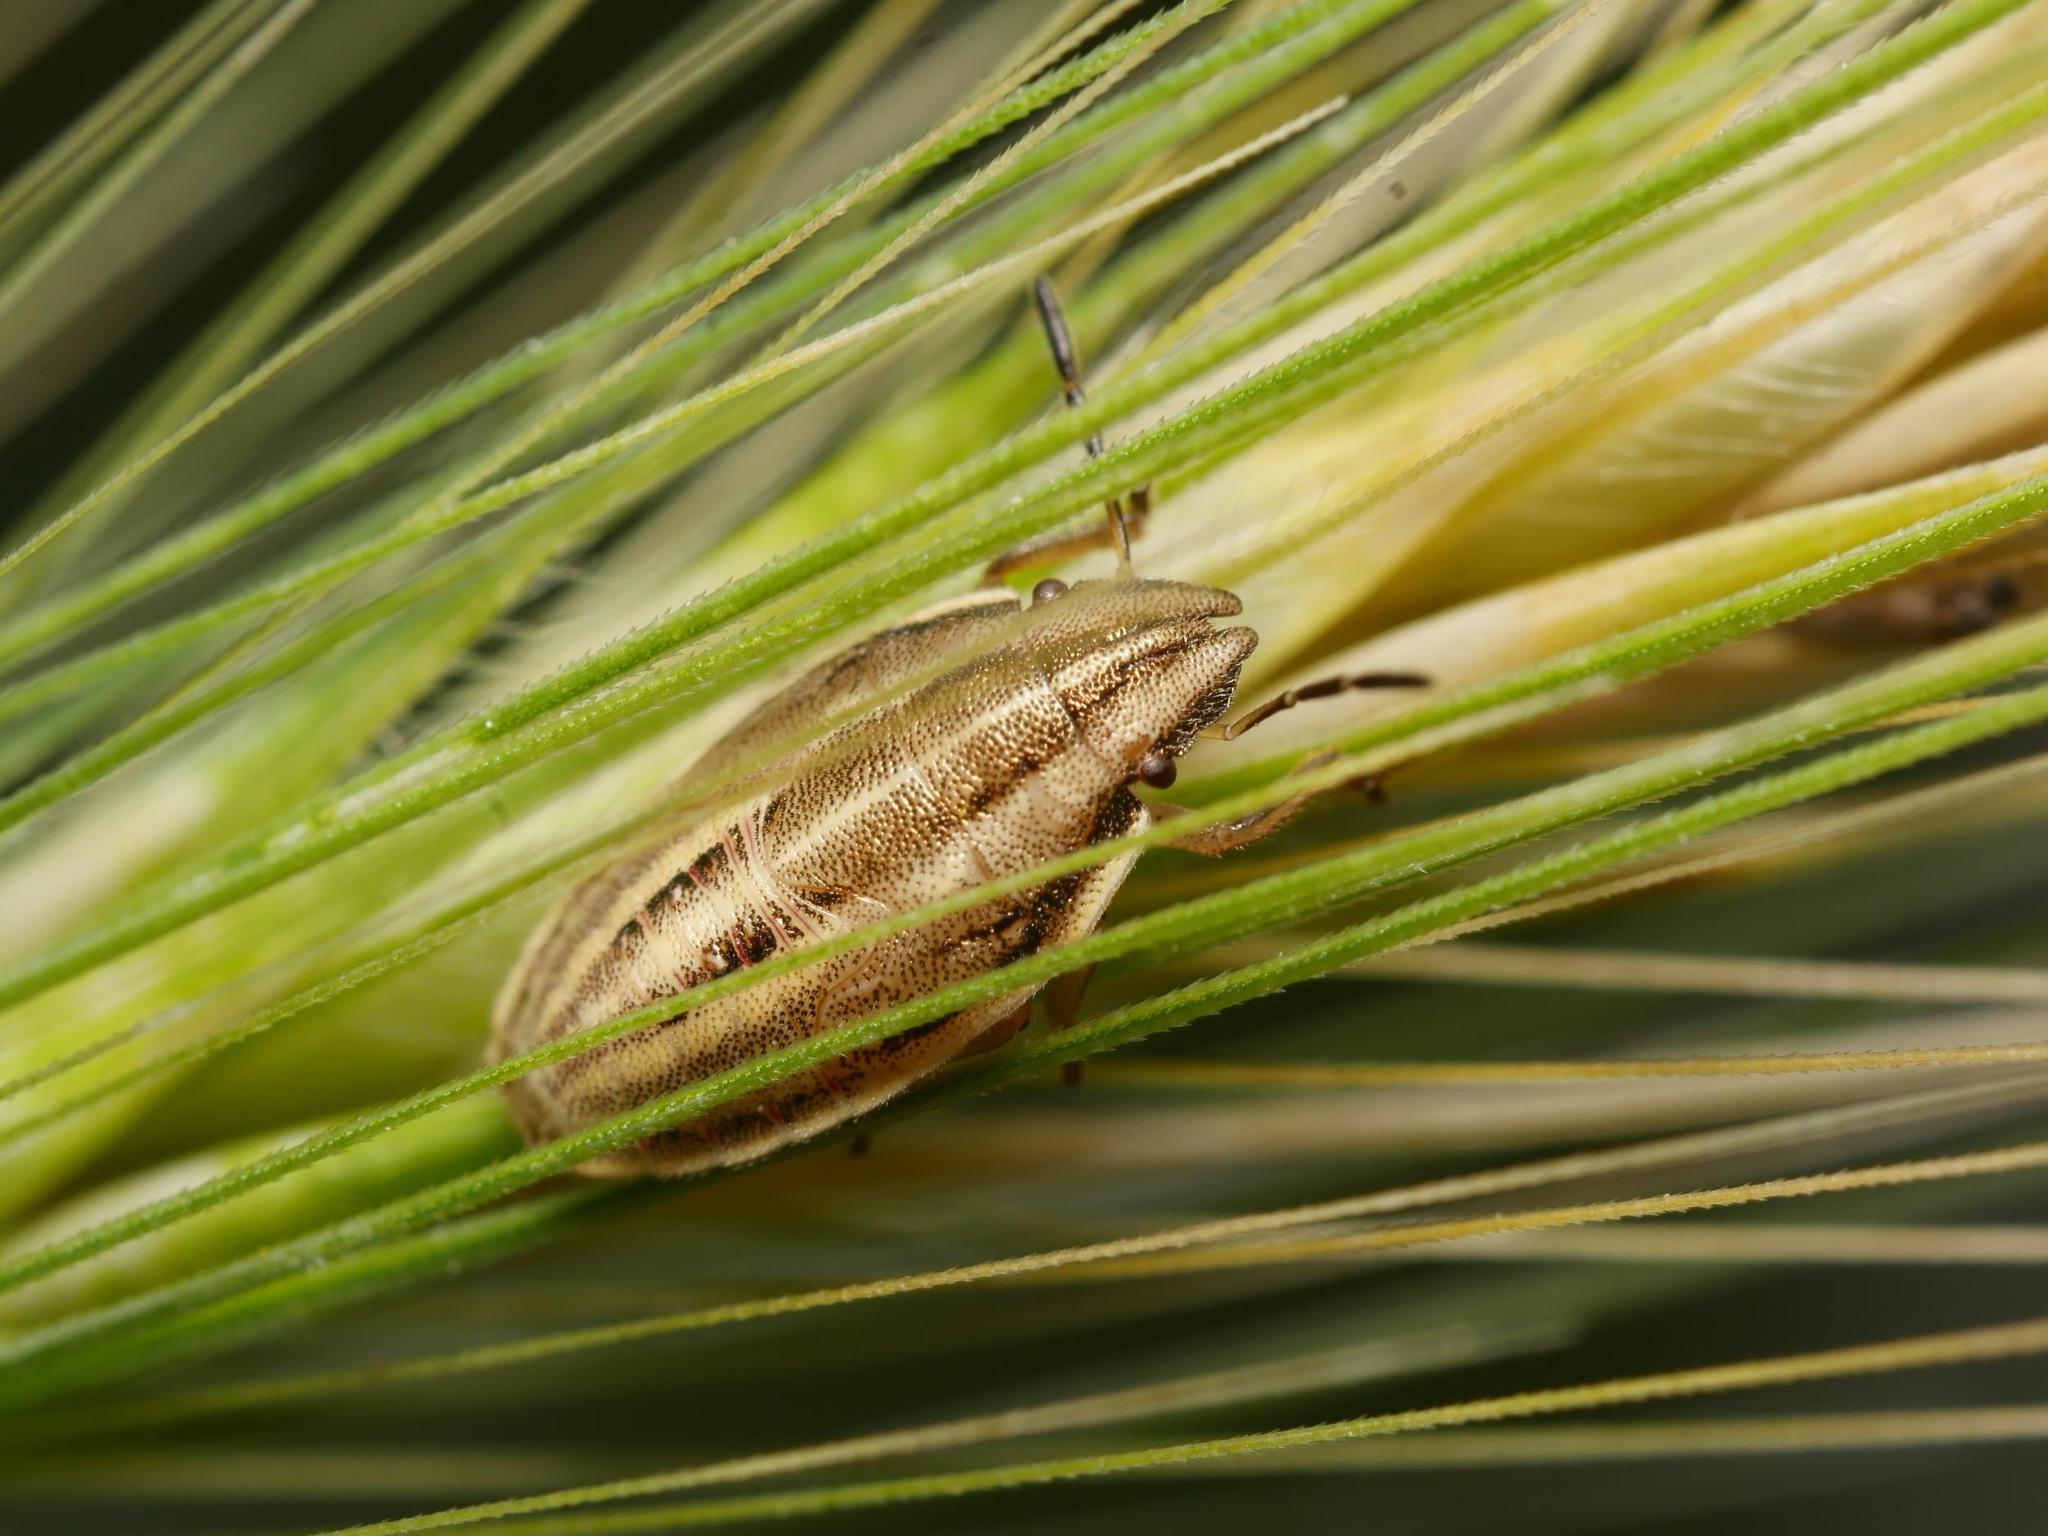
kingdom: Animalia
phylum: Arthropoda
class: Insecta
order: Hemiptera
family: Pentatomidae
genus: Aelia
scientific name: Aelia acuminata
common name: Bishop's mitre
